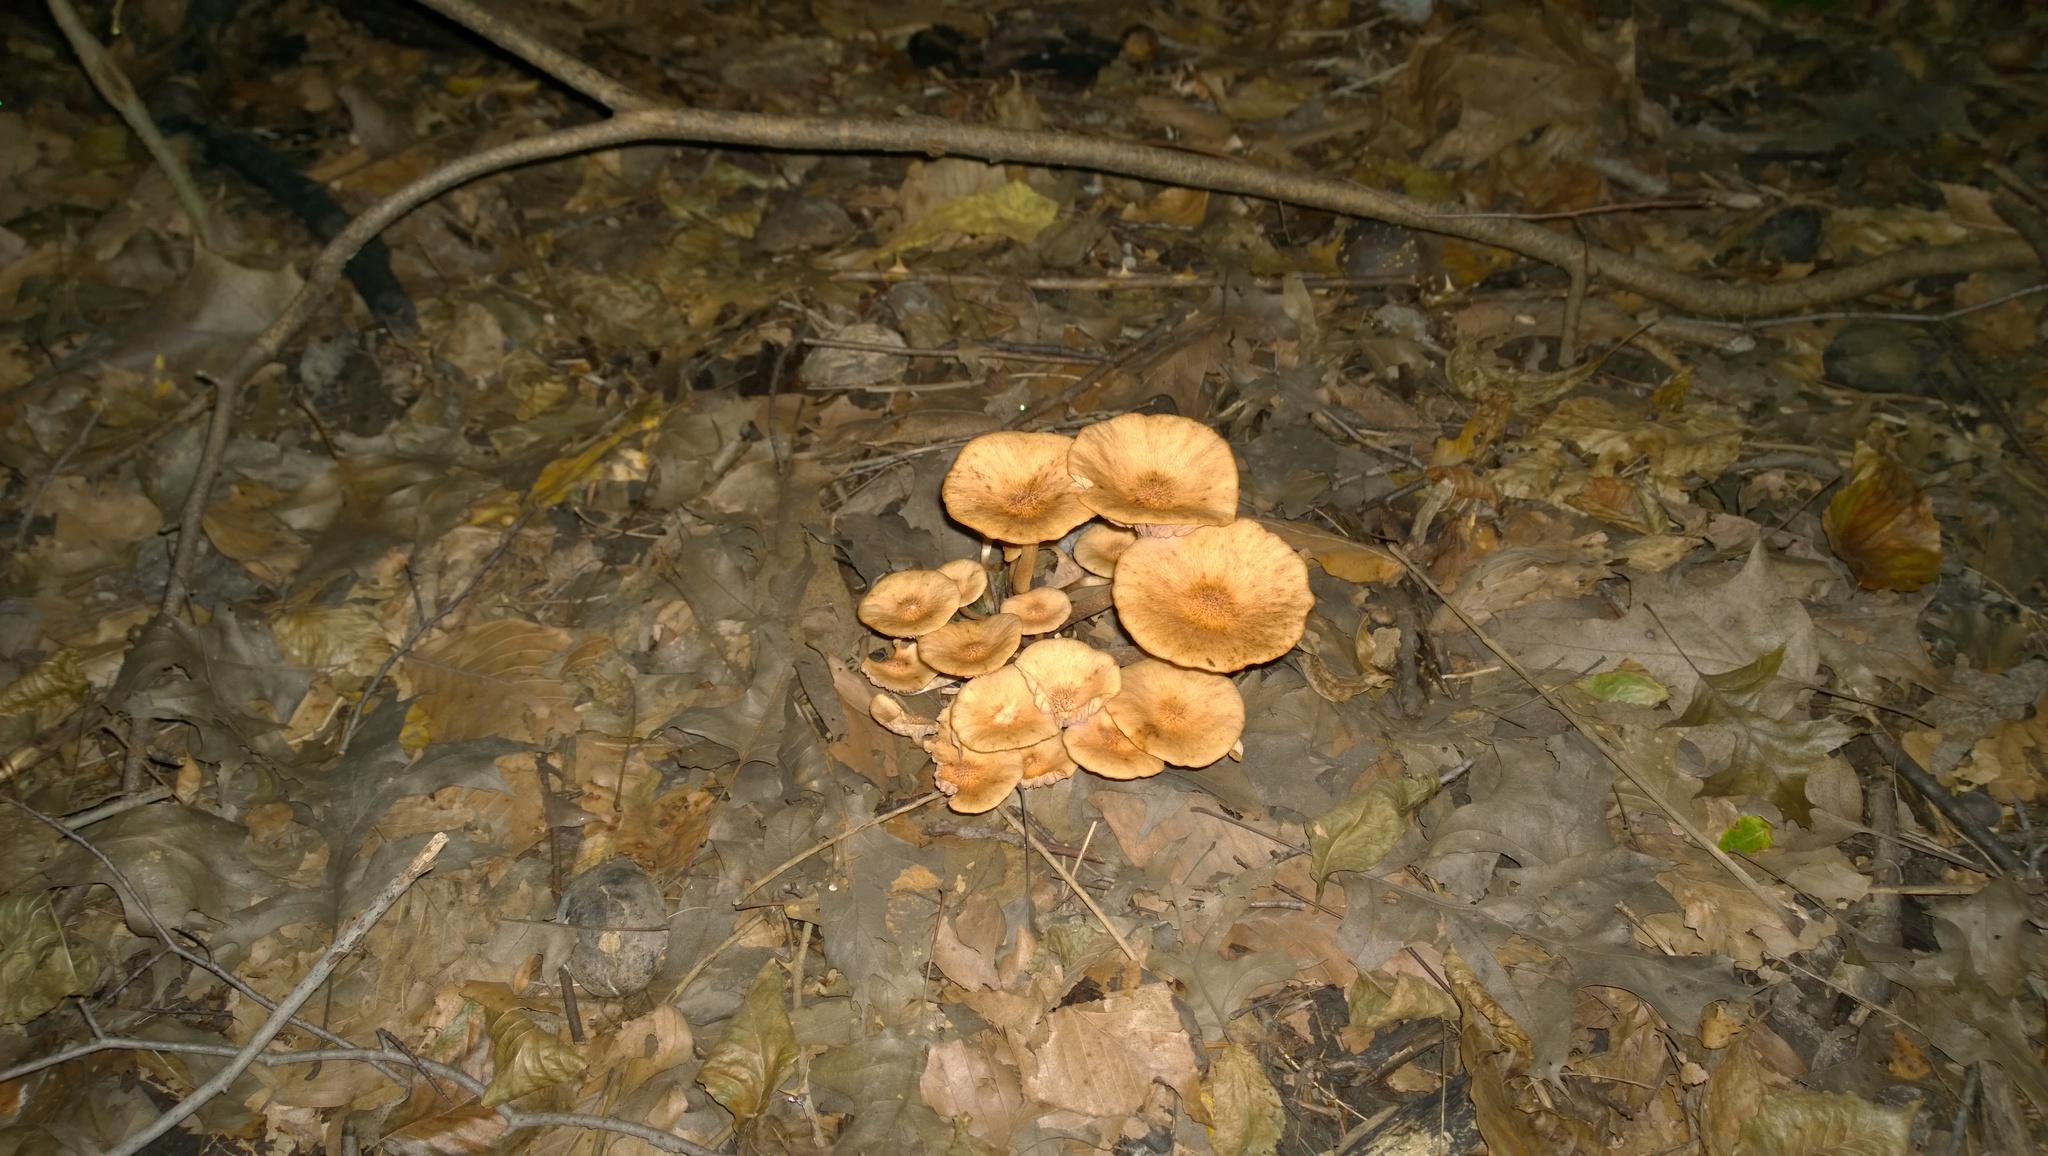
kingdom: Fungi
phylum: Basidiomycota
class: Agaricomycetes
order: Agaricales
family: Physalacriaceae
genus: Desarmillaria
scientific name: Desarmillaria caespitosa
